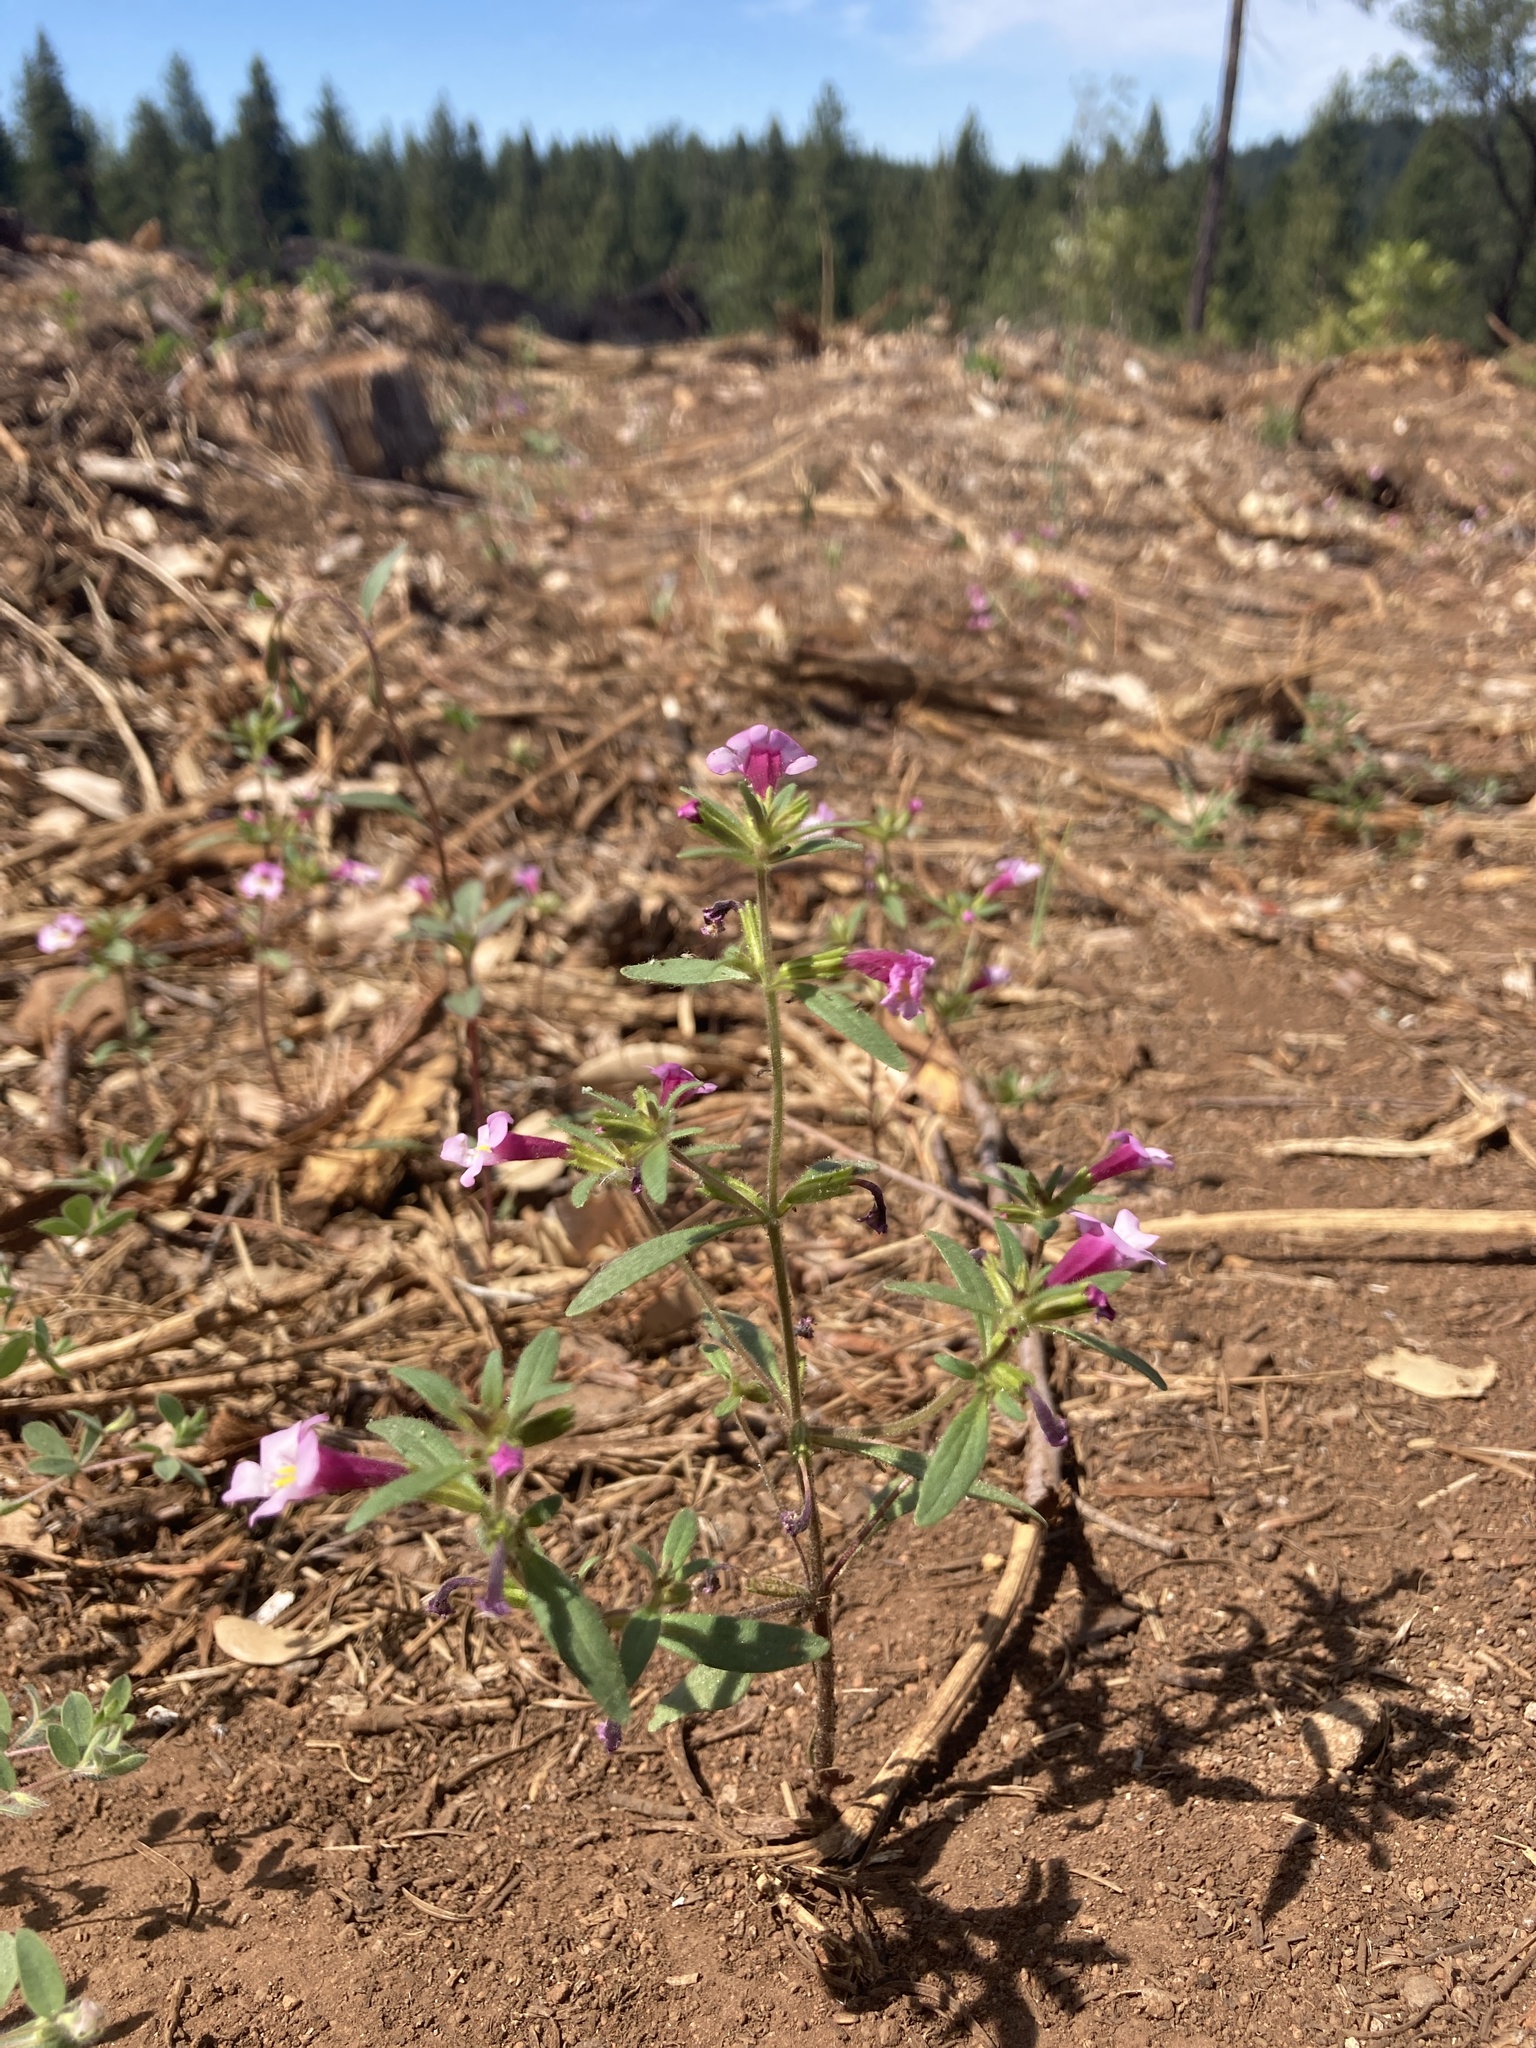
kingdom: Plantae
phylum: Tracheophyta
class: Magnoliopsida
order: Lamiales
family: Phrymaceae
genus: Diplacus
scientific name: Diplacus torreyi
